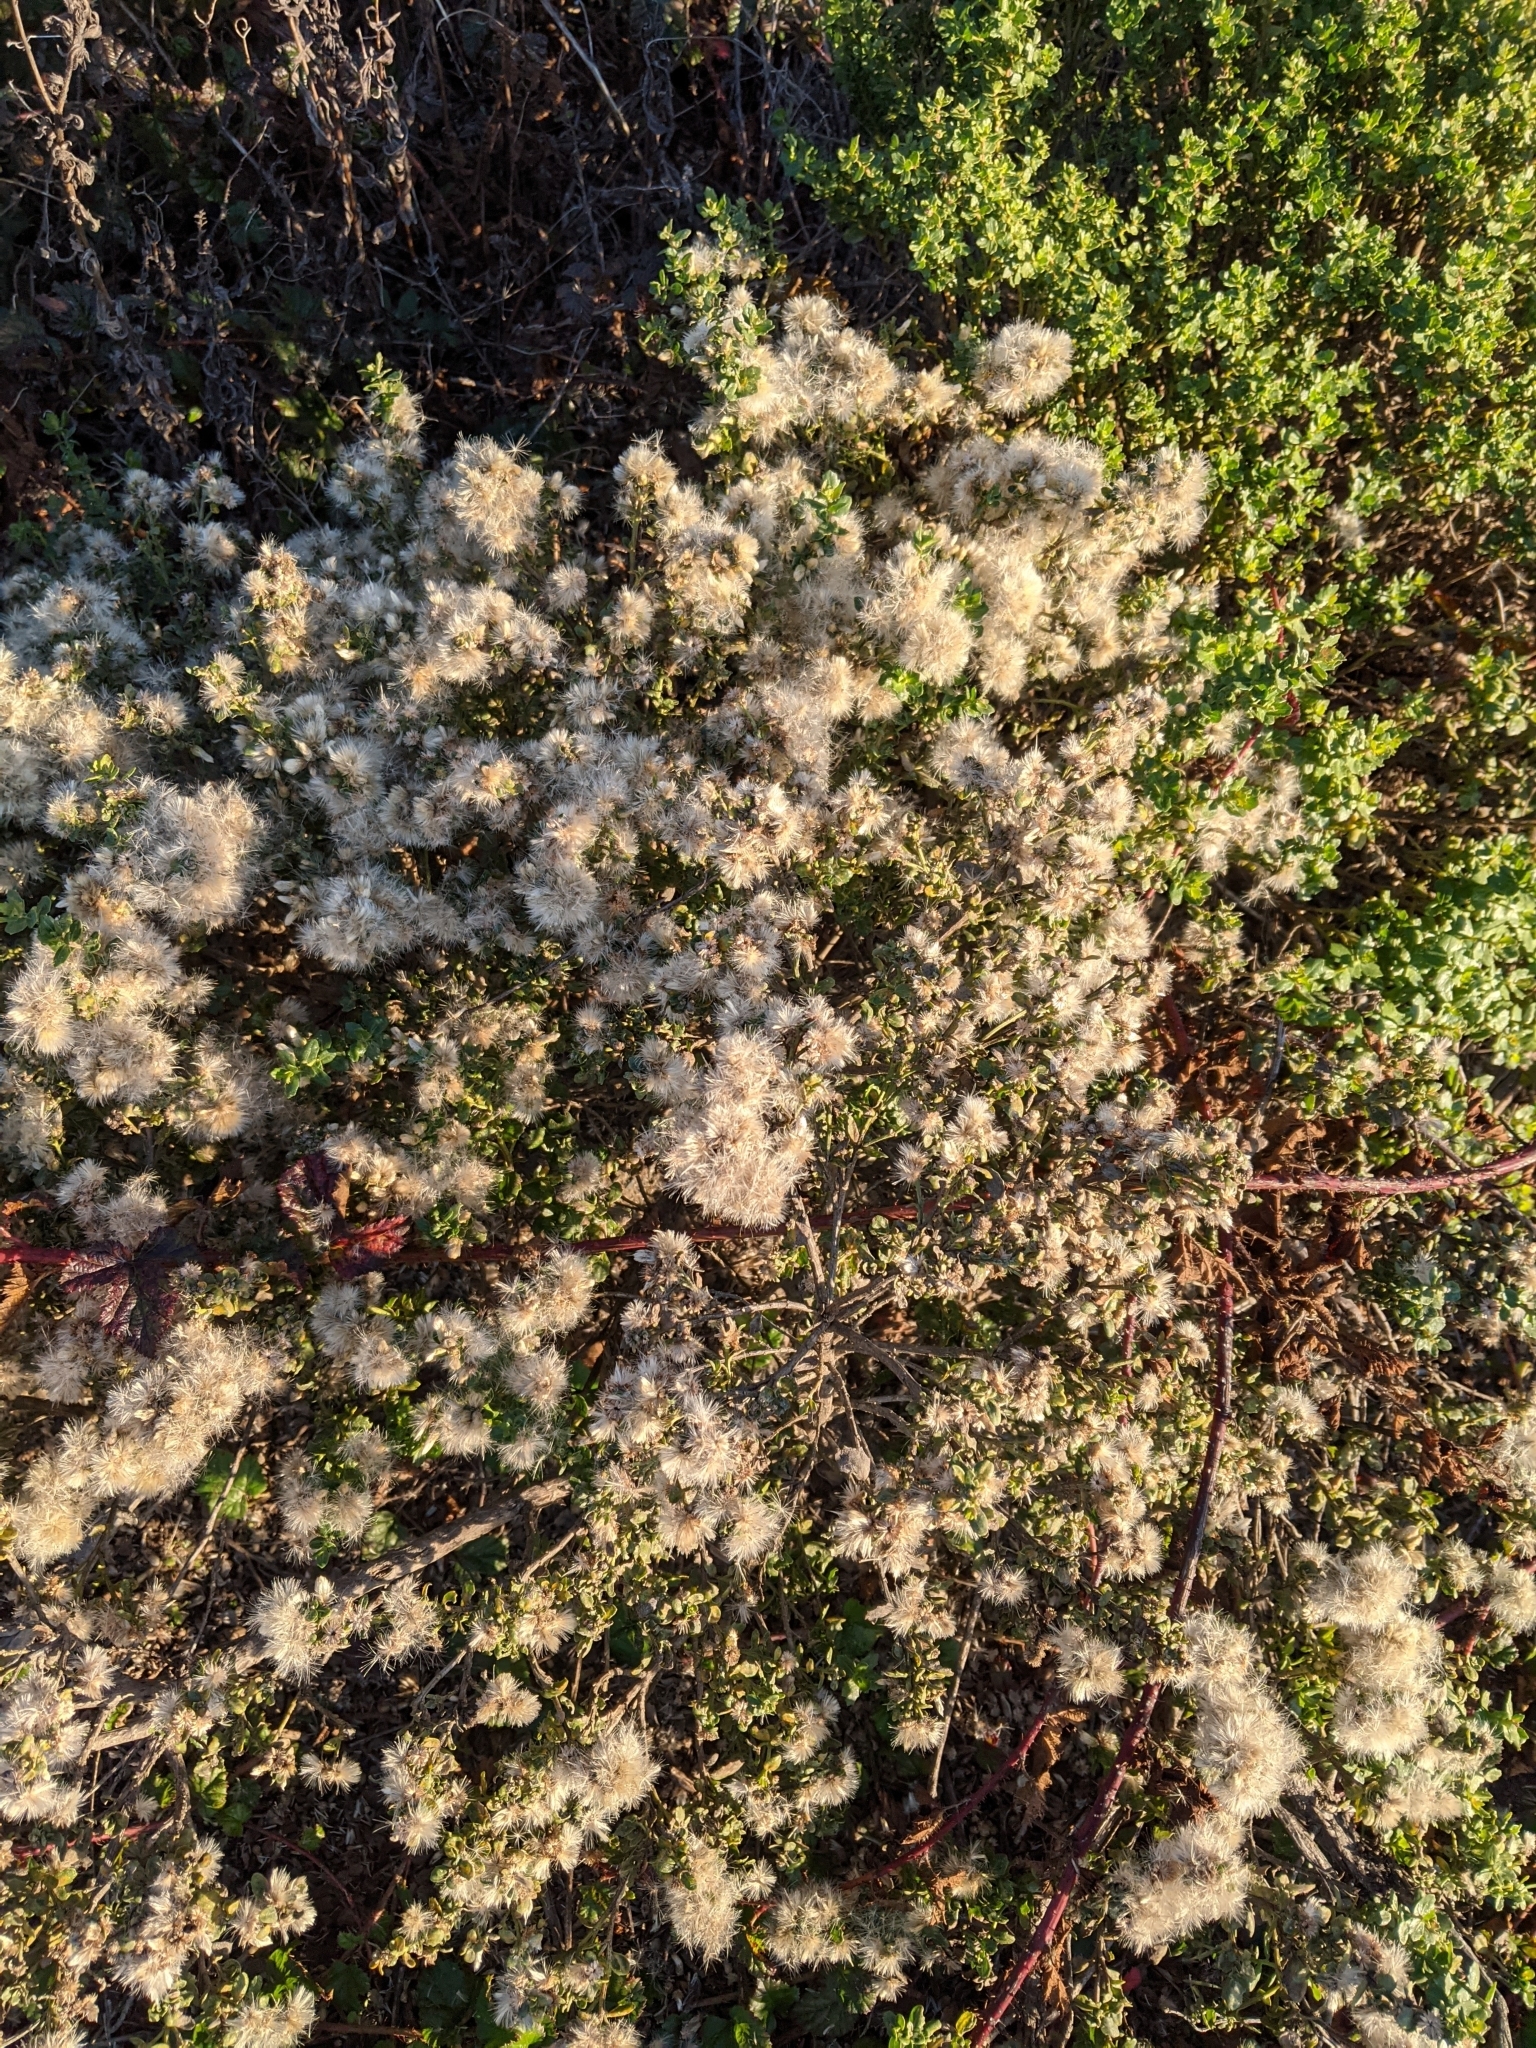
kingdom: Plantae
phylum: Tracheophyta
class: Magnoliopsida
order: Asterales
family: Asteraceae
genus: Baccharis
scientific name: Baccharis pilularis
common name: Coyotebrush
